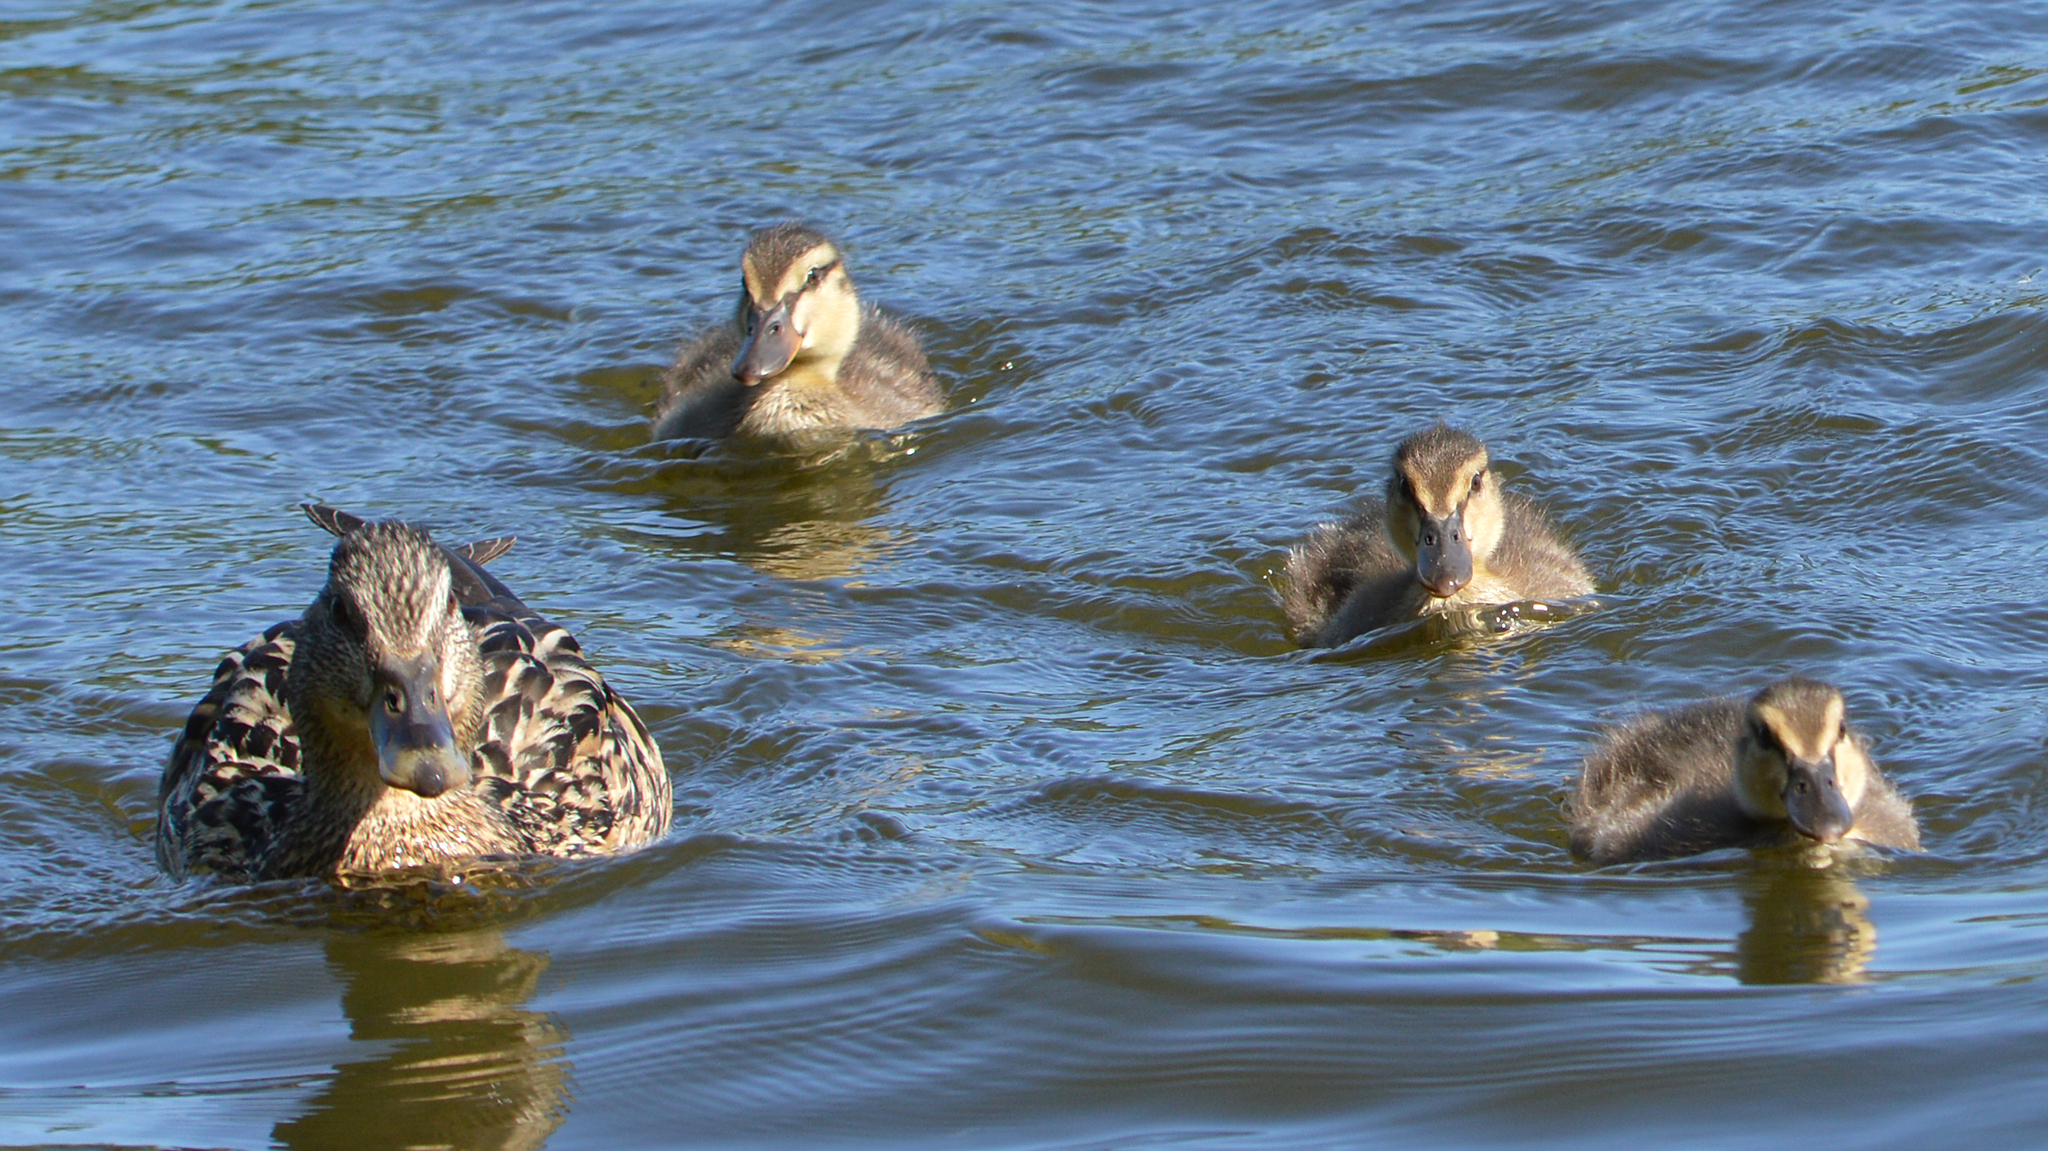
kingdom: Animalia
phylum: Chordata
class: Aves
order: Anseriformes
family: Anatidae
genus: Anas
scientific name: Anas platyrhynchos
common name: Mallard
